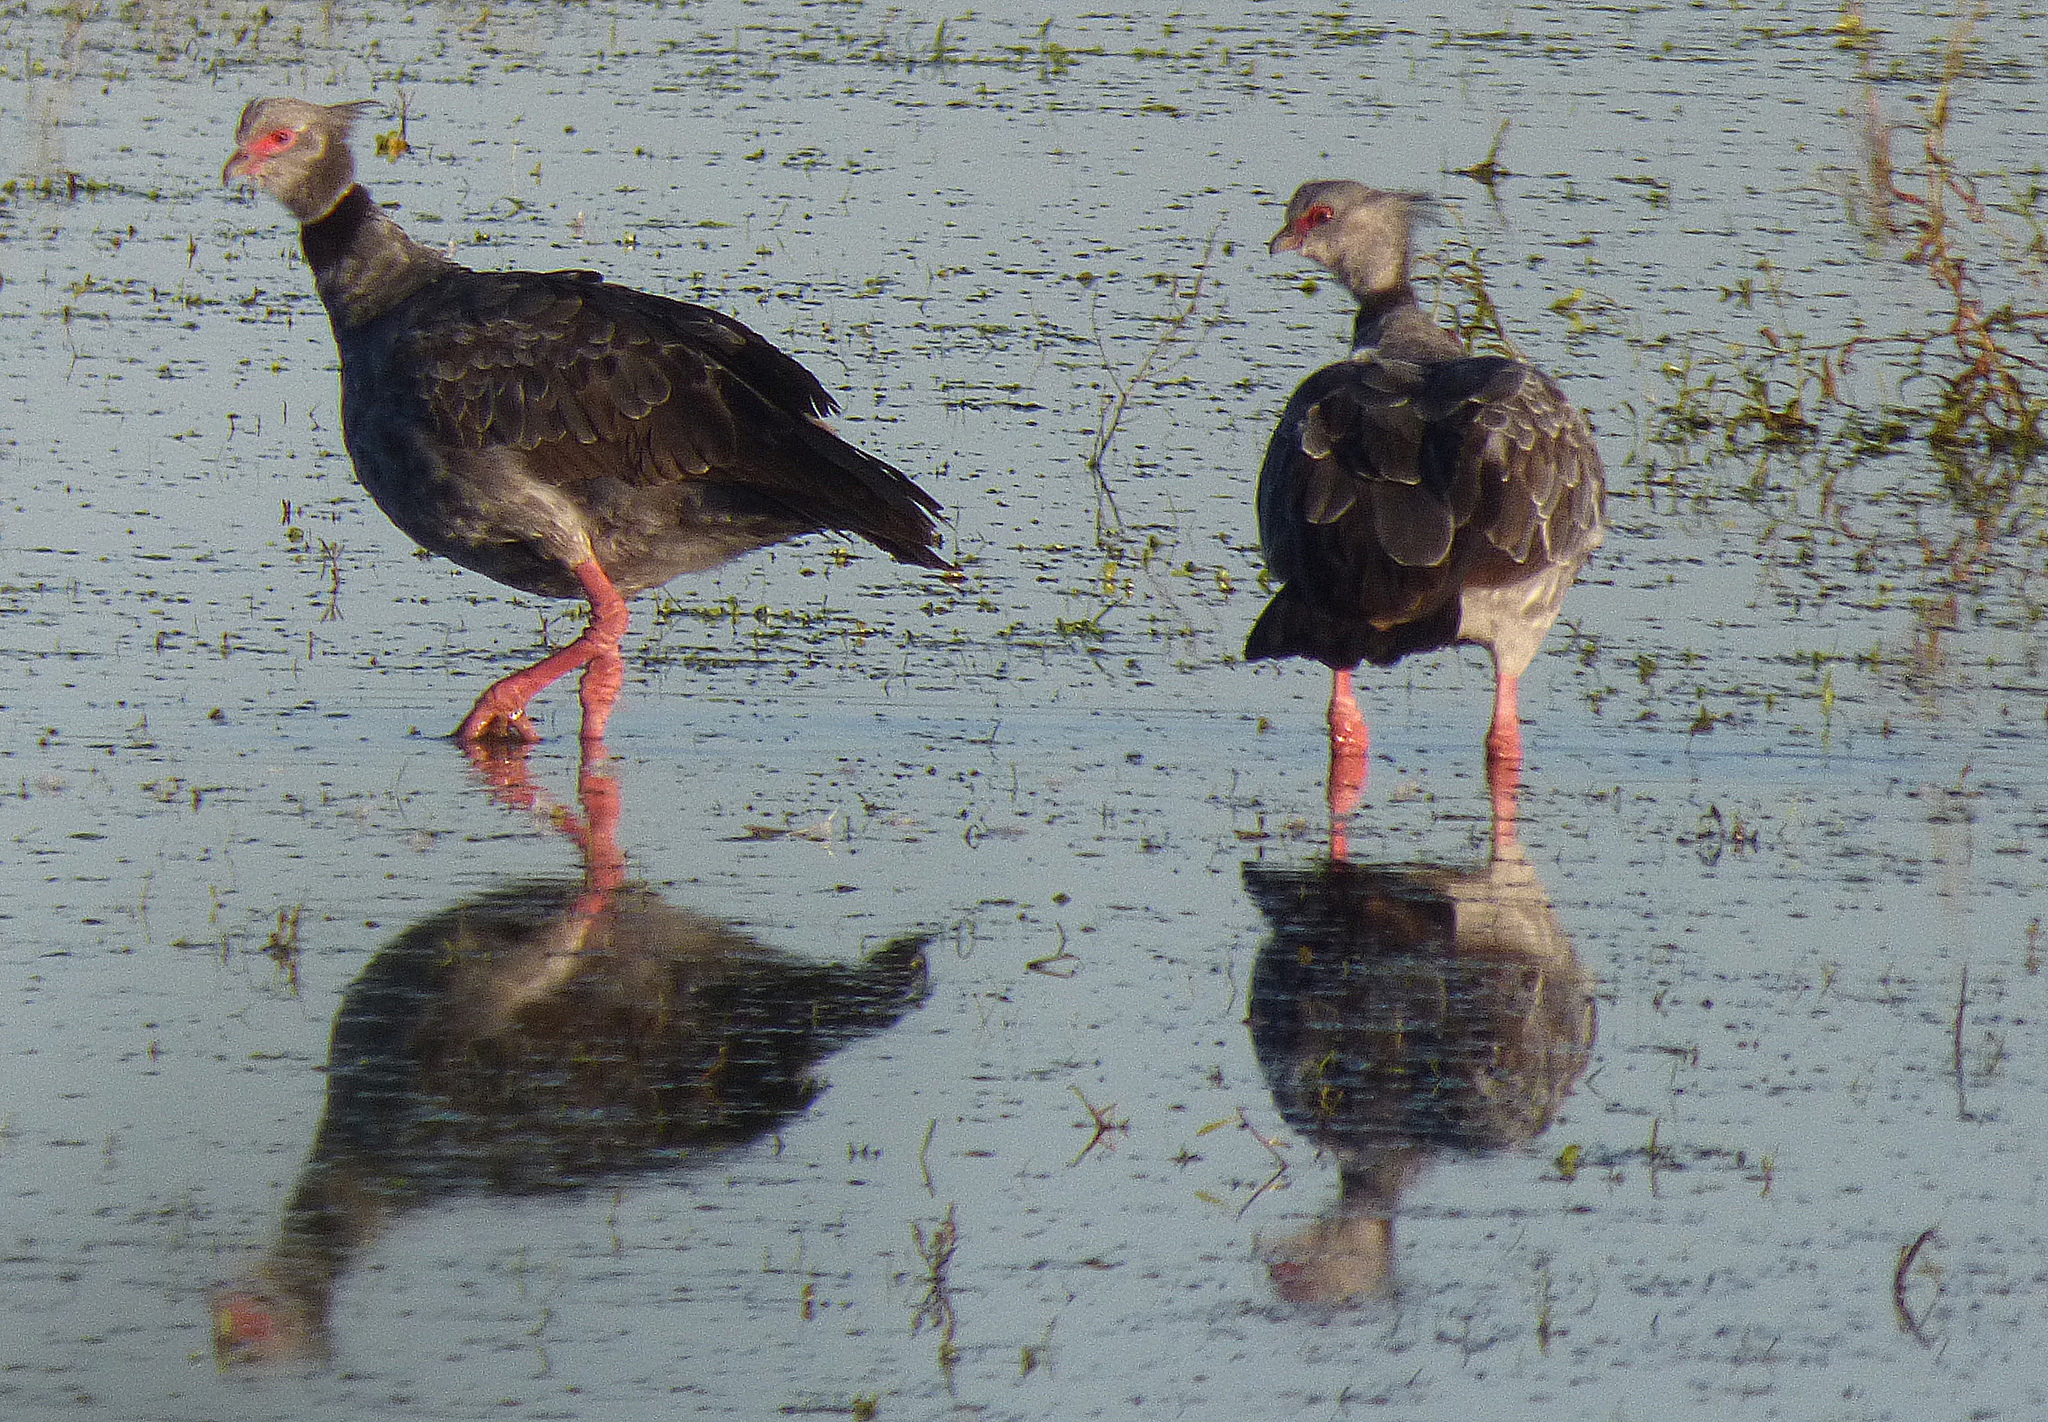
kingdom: Animalia
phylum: Chordata
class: Aves
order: Anseriformes
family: Anhimidae
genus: Chauna
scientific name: Chauna torquata
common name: Southern screamer
